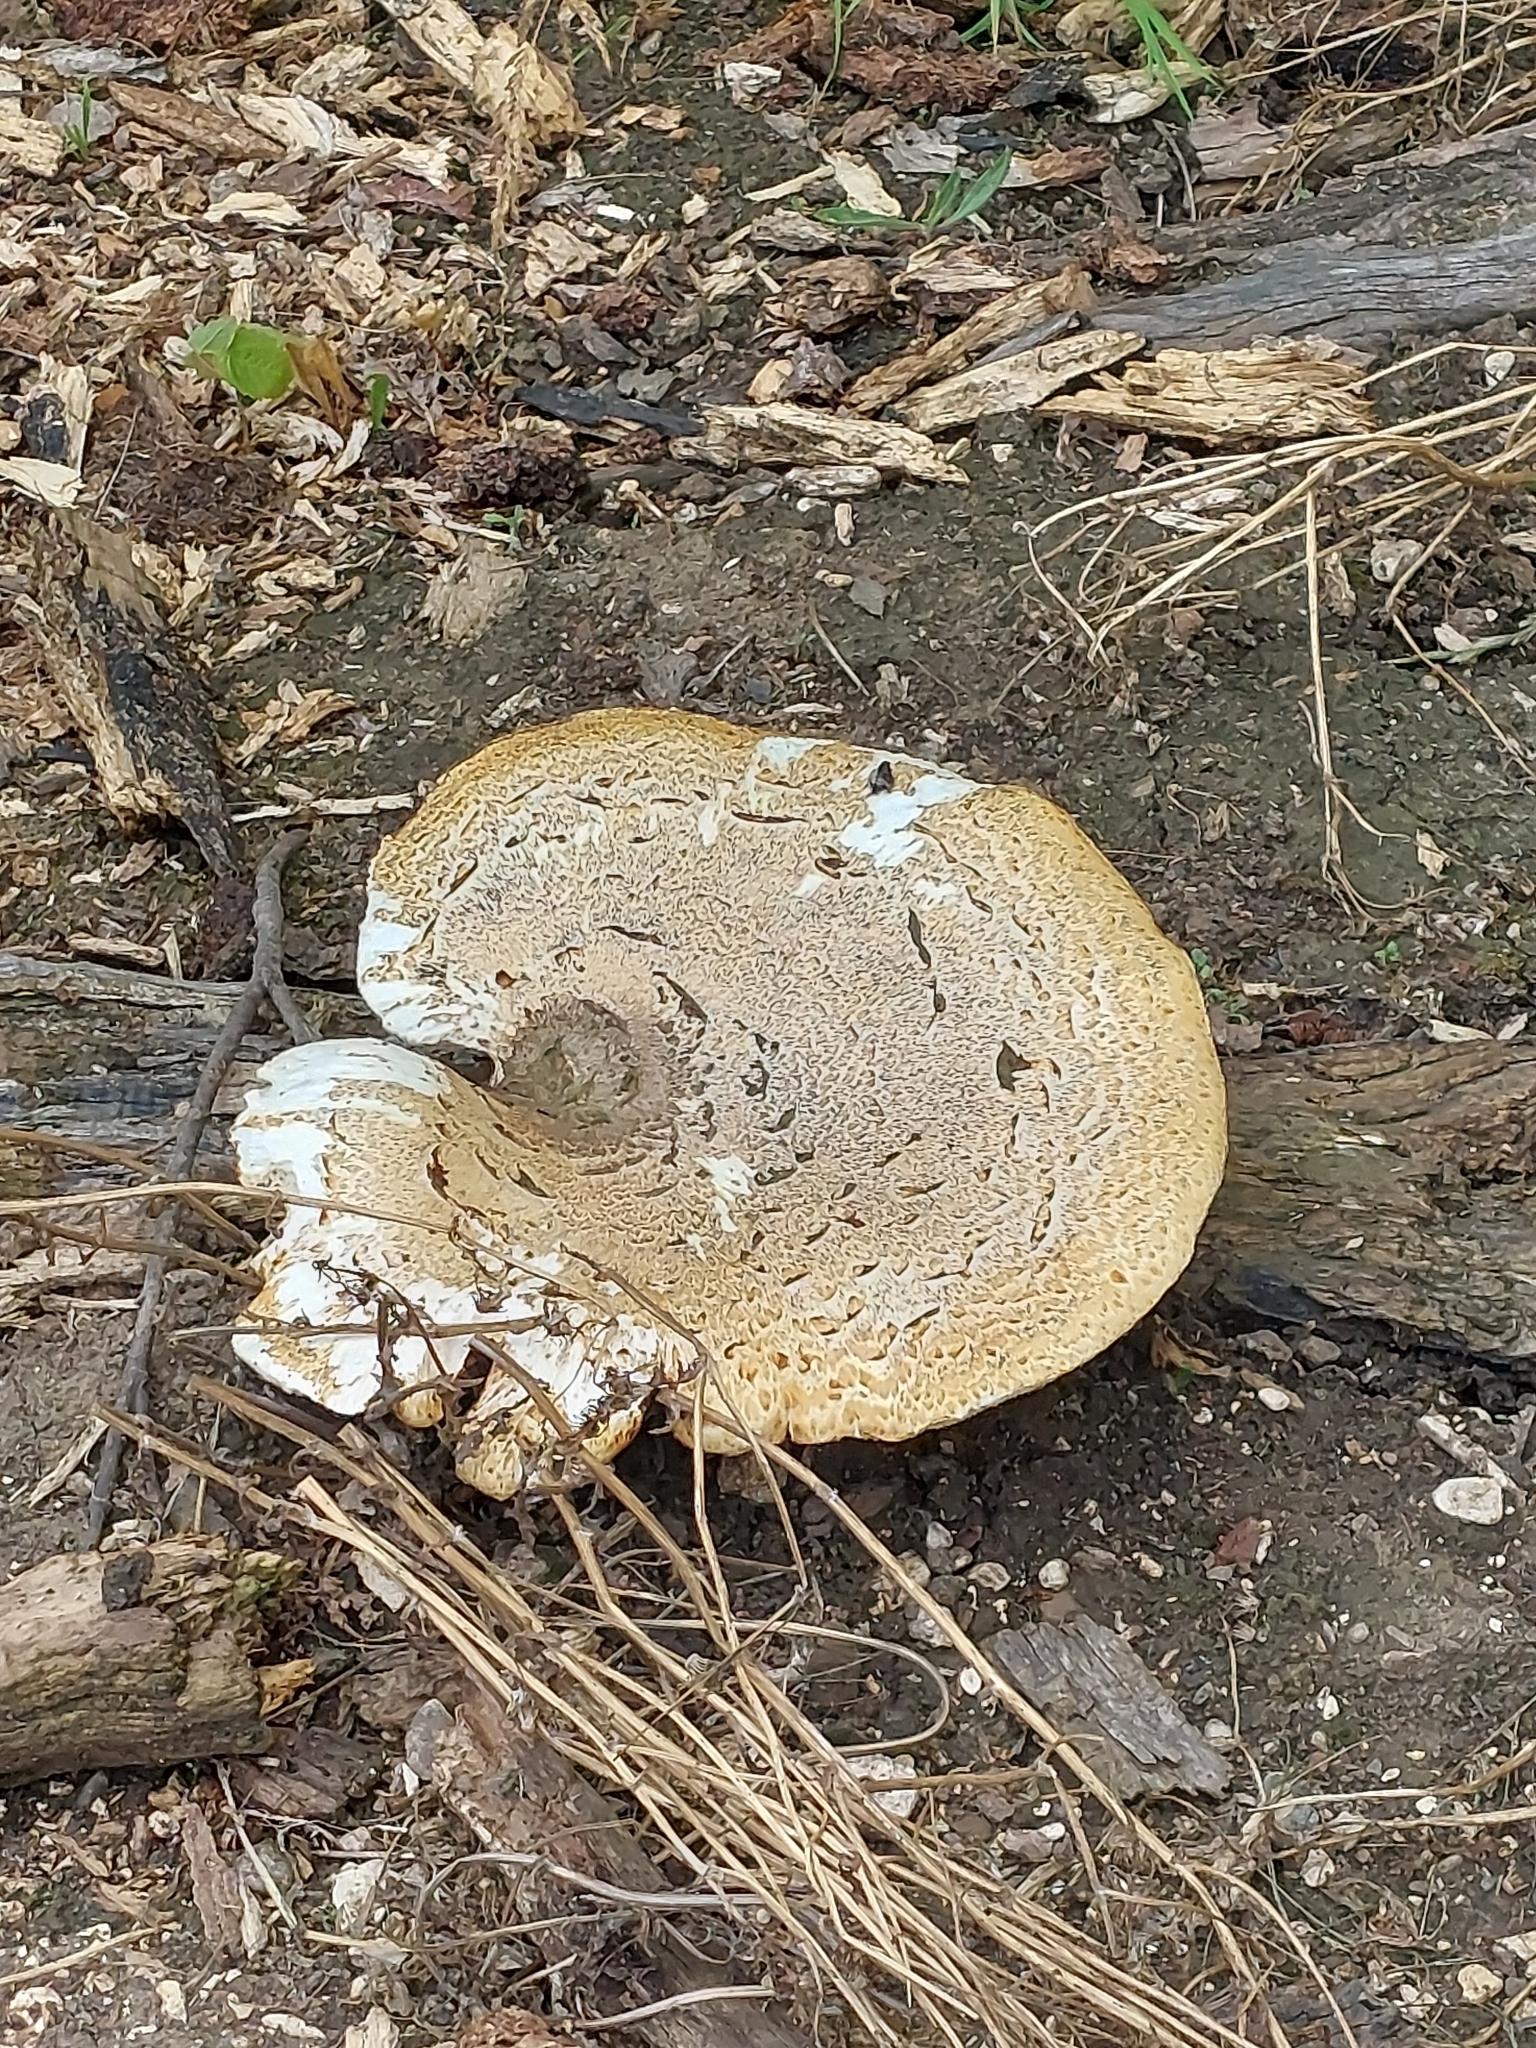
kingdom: Fungi
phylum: Basidiomycota
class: Agaricomycetes
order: Polyporales
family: Polyporaceae
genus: Cerioporus
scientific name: Cerioporus squamosus
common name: Dryad's saddle
